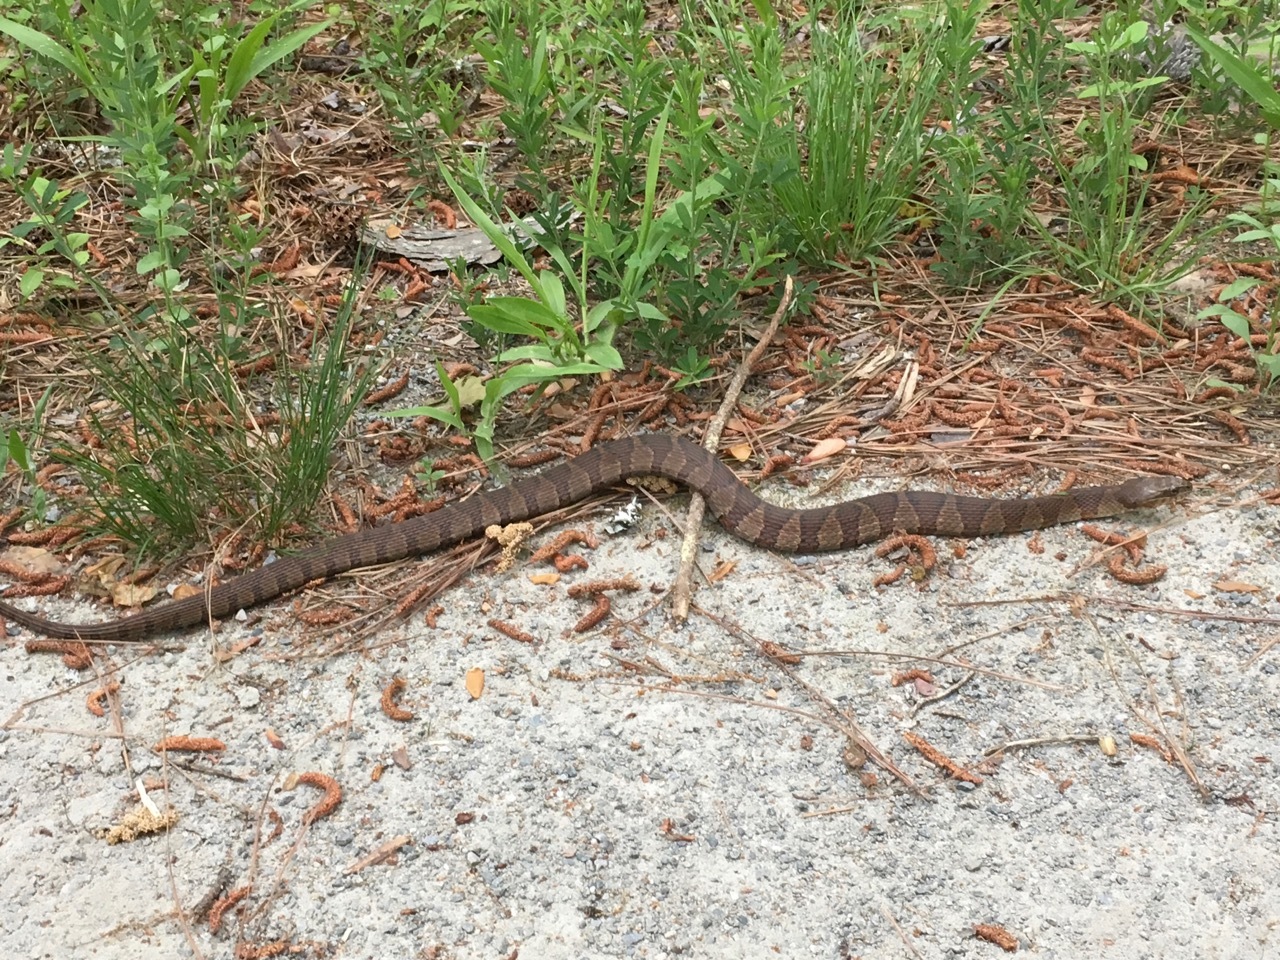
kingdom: Animalia
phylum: Chordata
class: Squamata
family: Colubridae
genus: Nerodia
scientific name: Nerodia sipedon
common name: Northern water snake
